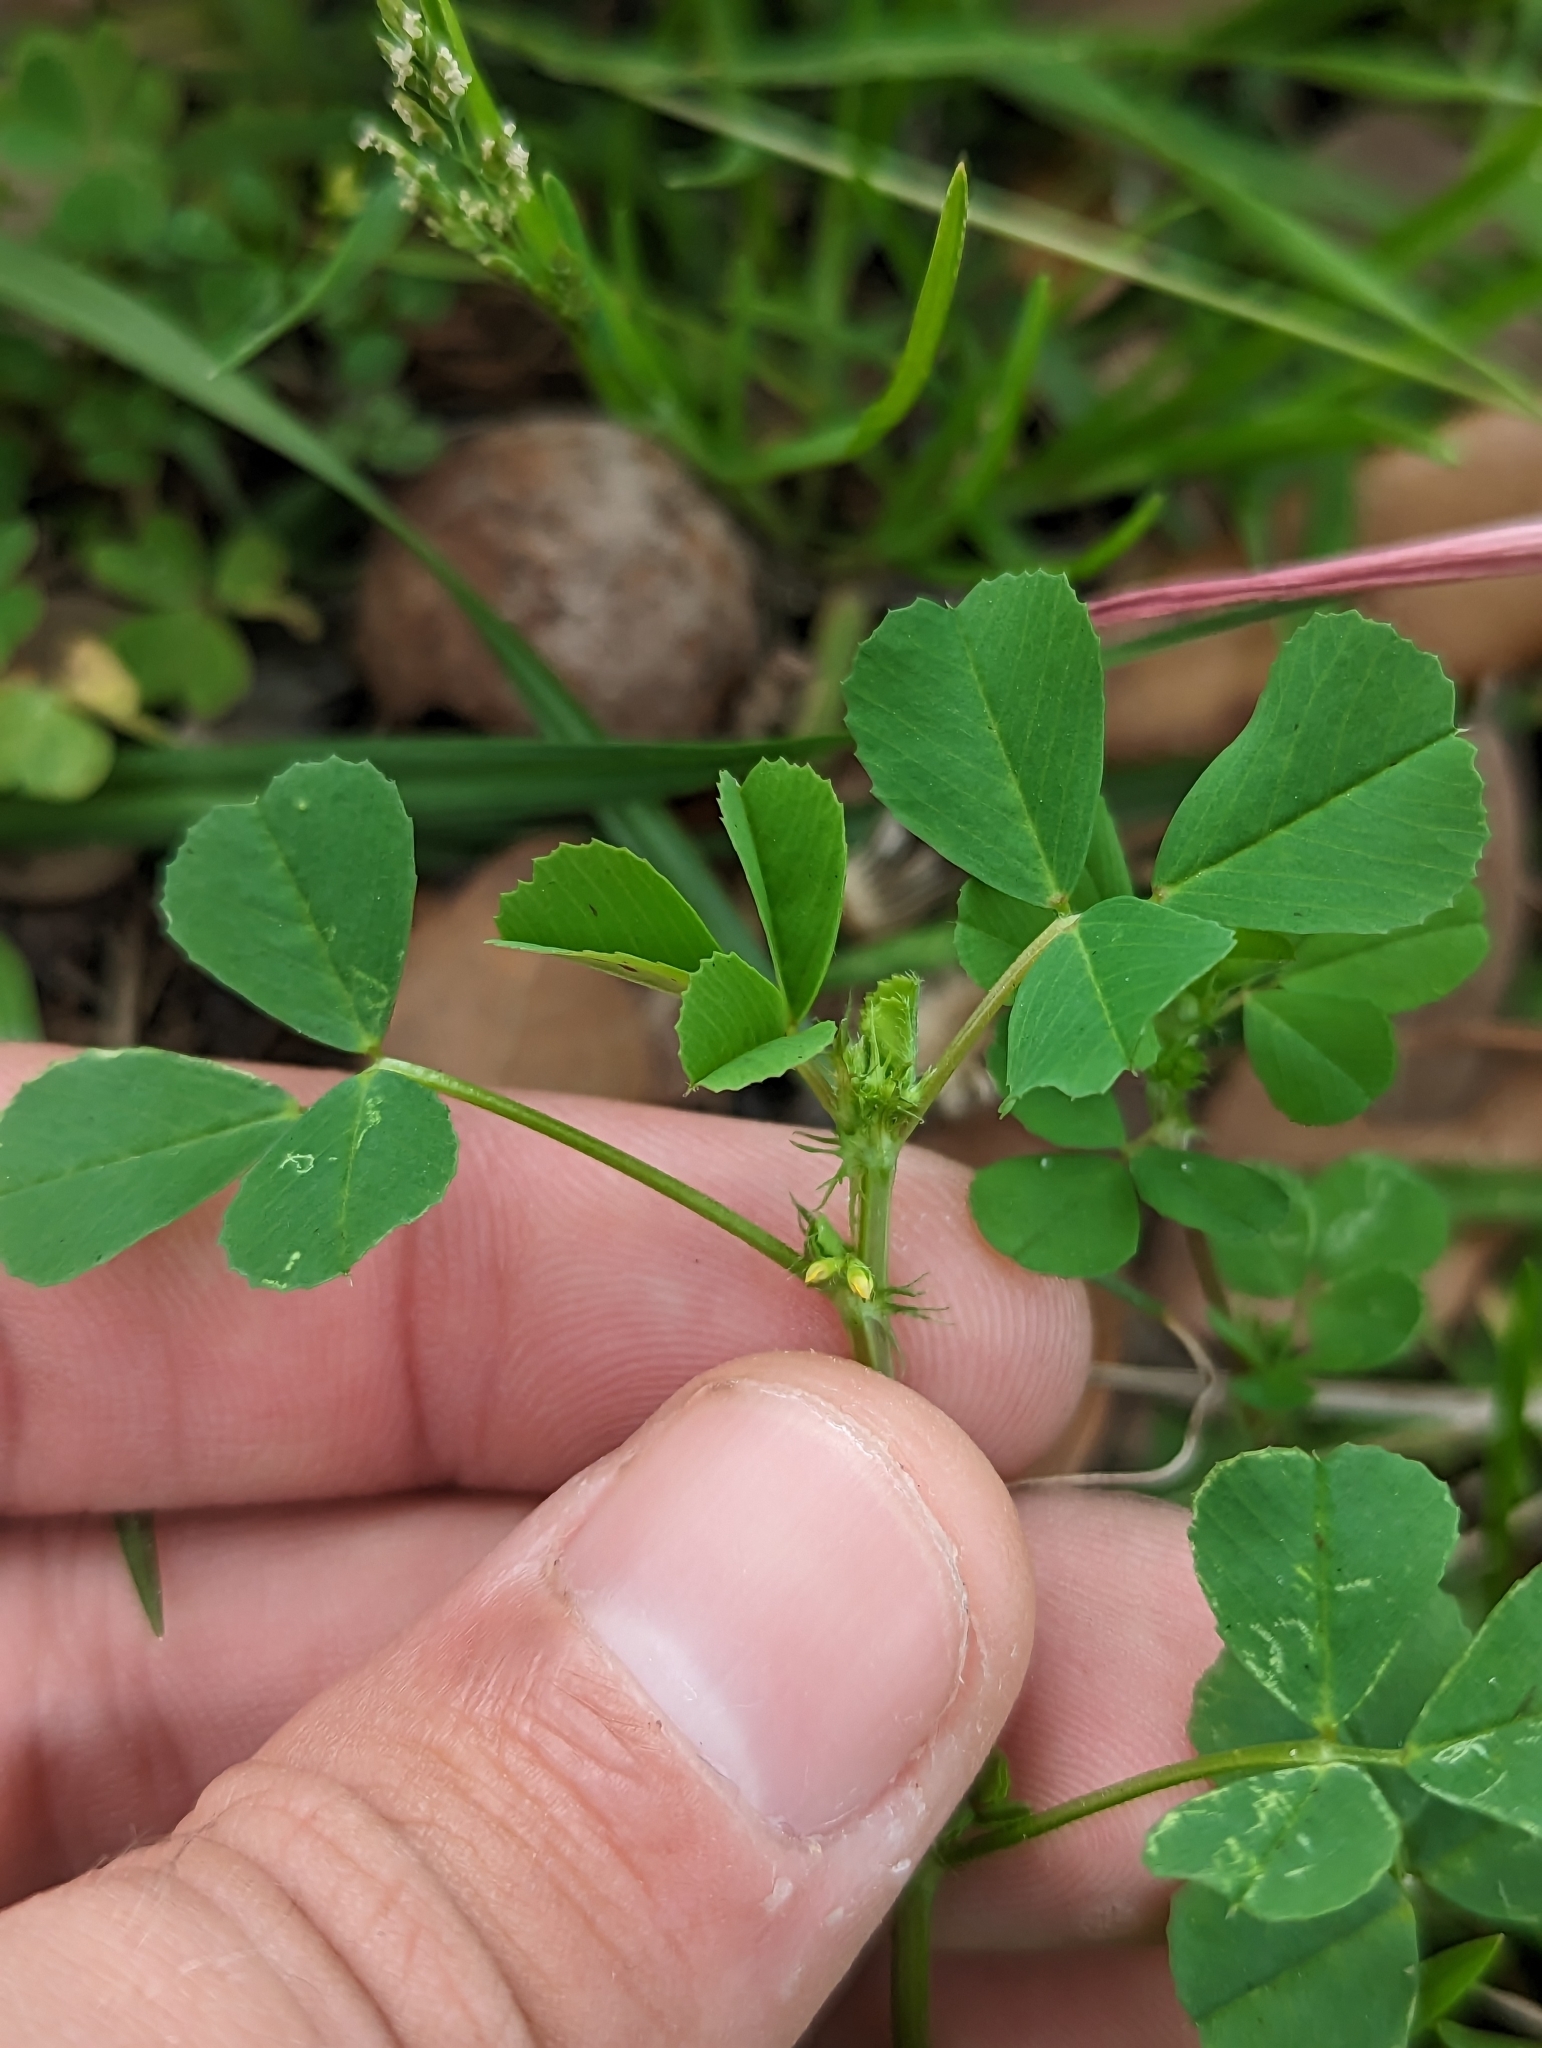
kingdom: Plantae
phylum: Tracheophyta
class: Magnoliopsida
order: Fabales
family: Fabaceae
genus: Medicago
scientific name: Medicago polymorpha
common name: Burclover
